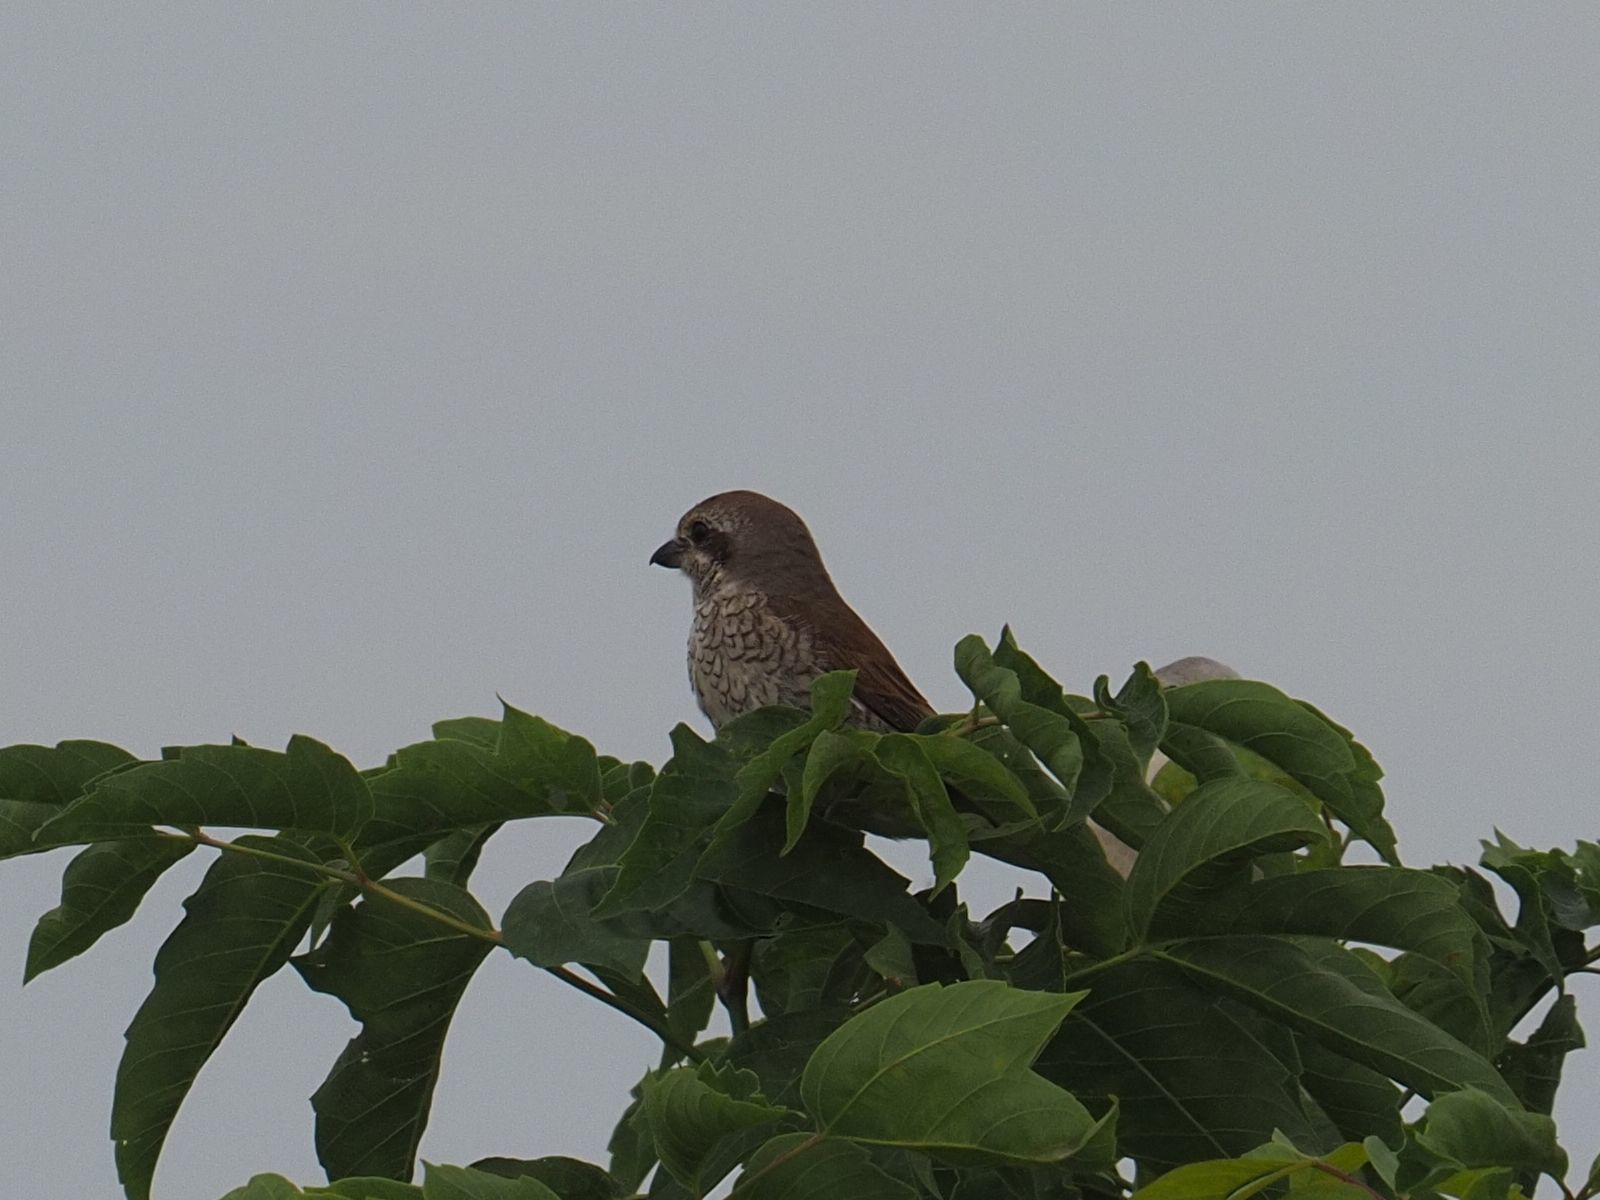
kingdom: Animalia
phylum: Chordata
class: Aves
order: Passeriformes
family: Laniidae
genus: Lanius
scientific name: Lanius collurio
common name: Red-backed shrike
